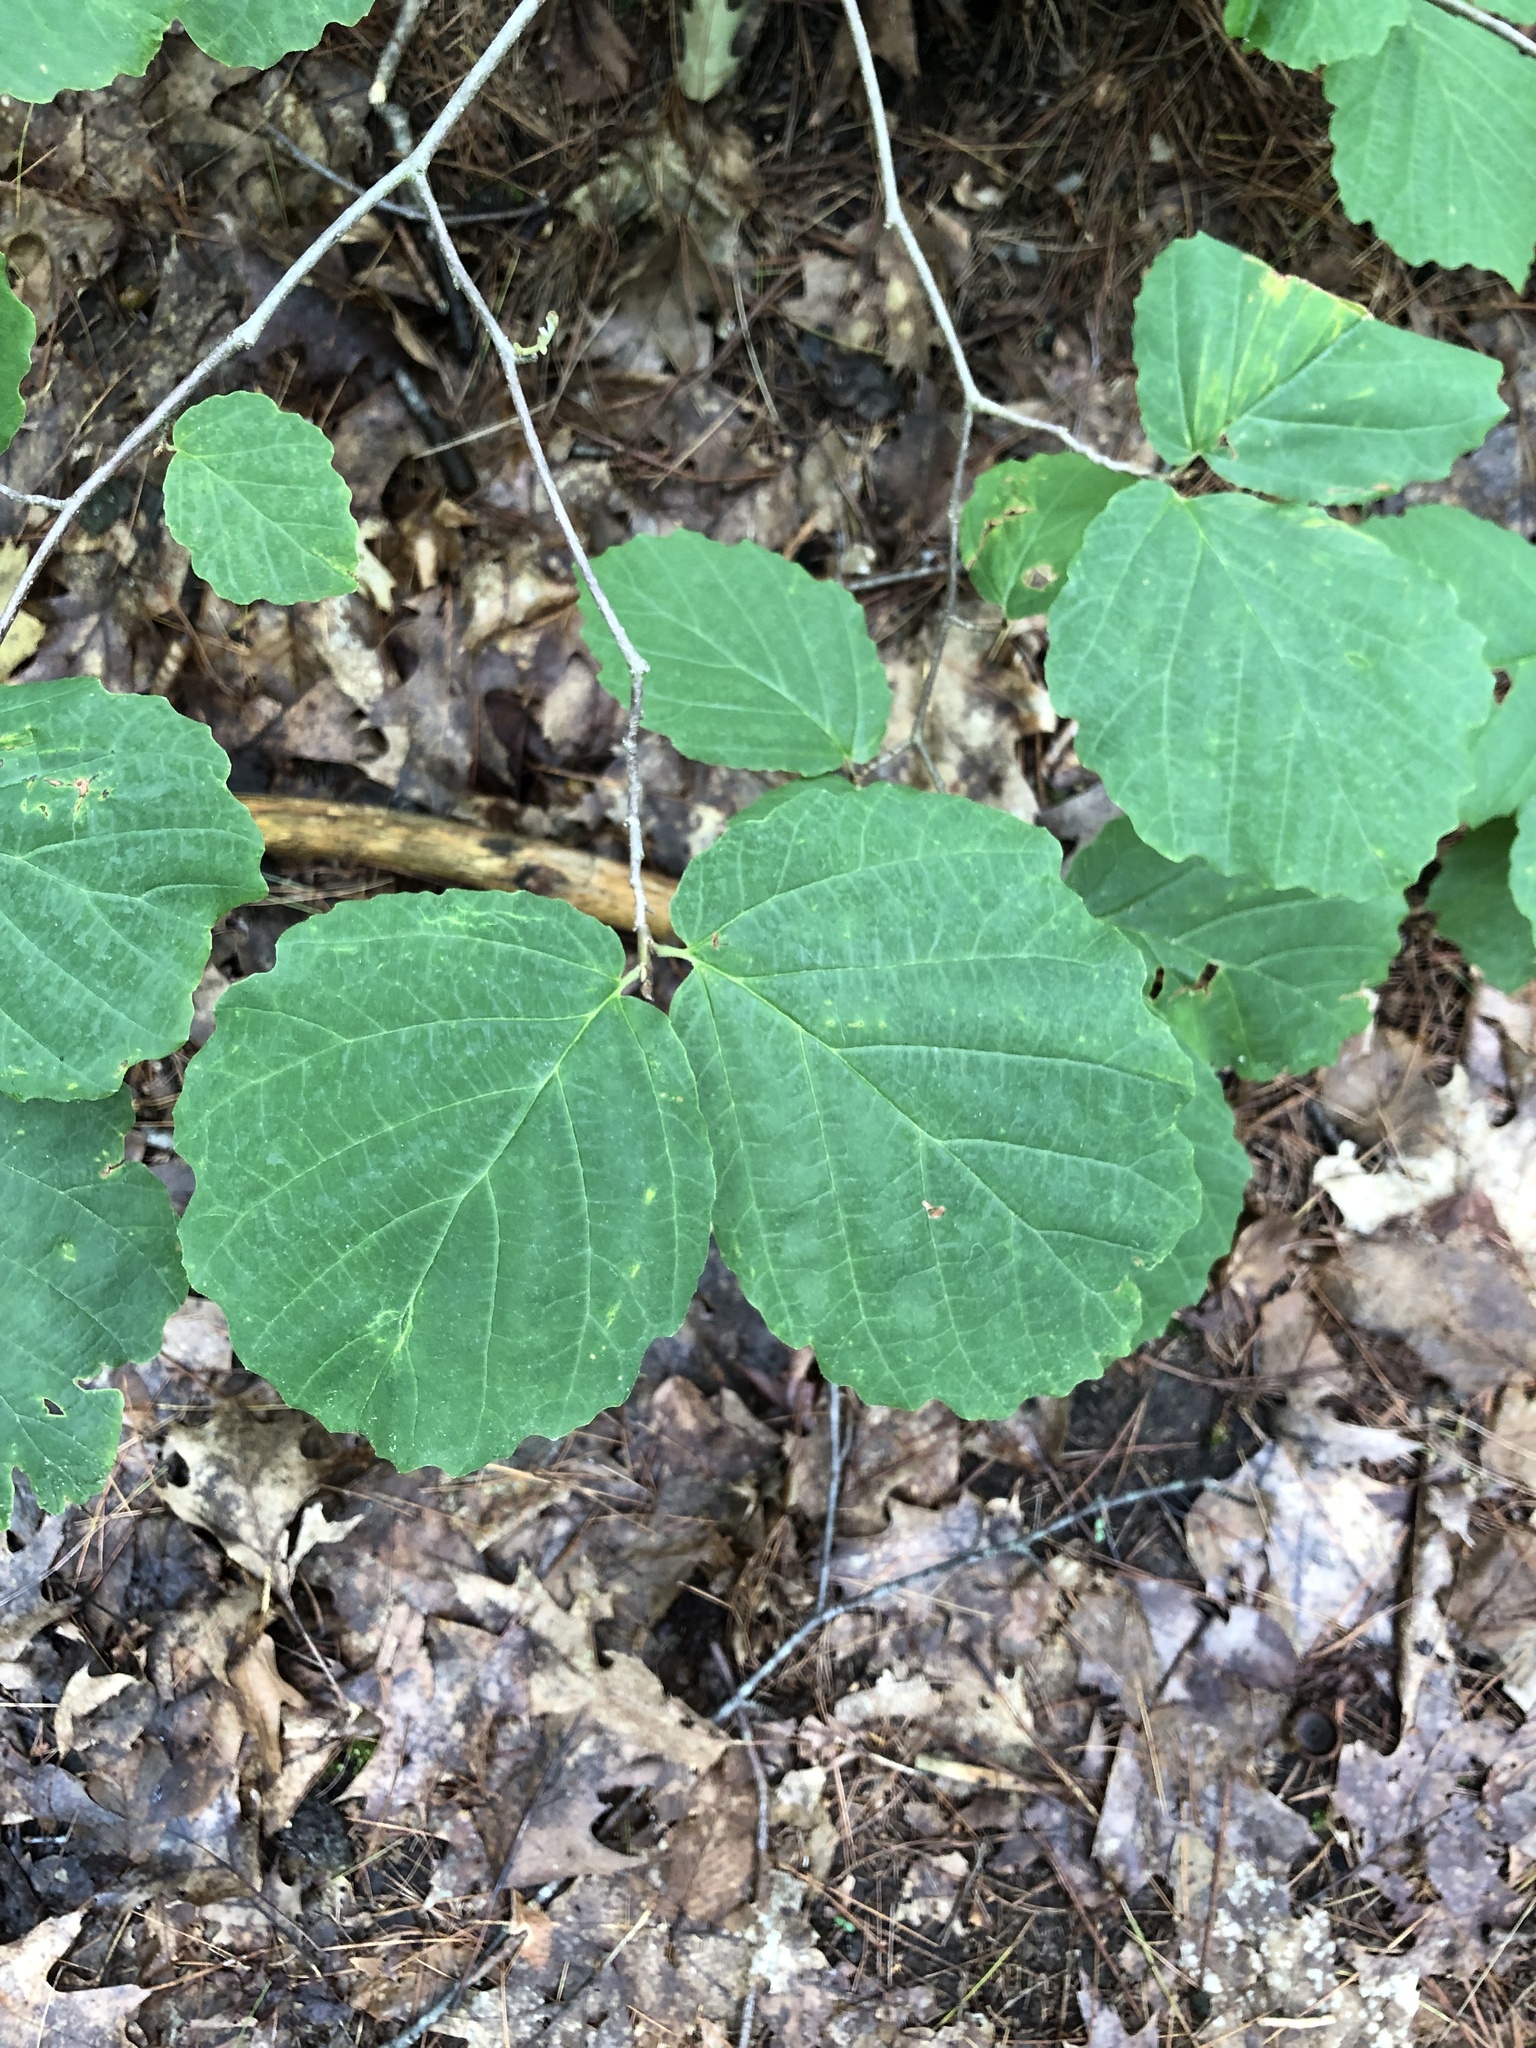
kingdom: Plantae
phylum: Tracheophyta
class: Magnoliopsida
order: Saxifragales
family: Hamamelidaceae
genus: Hamamelis
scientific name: Hamamelis virginiana
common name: Witch-hazel
